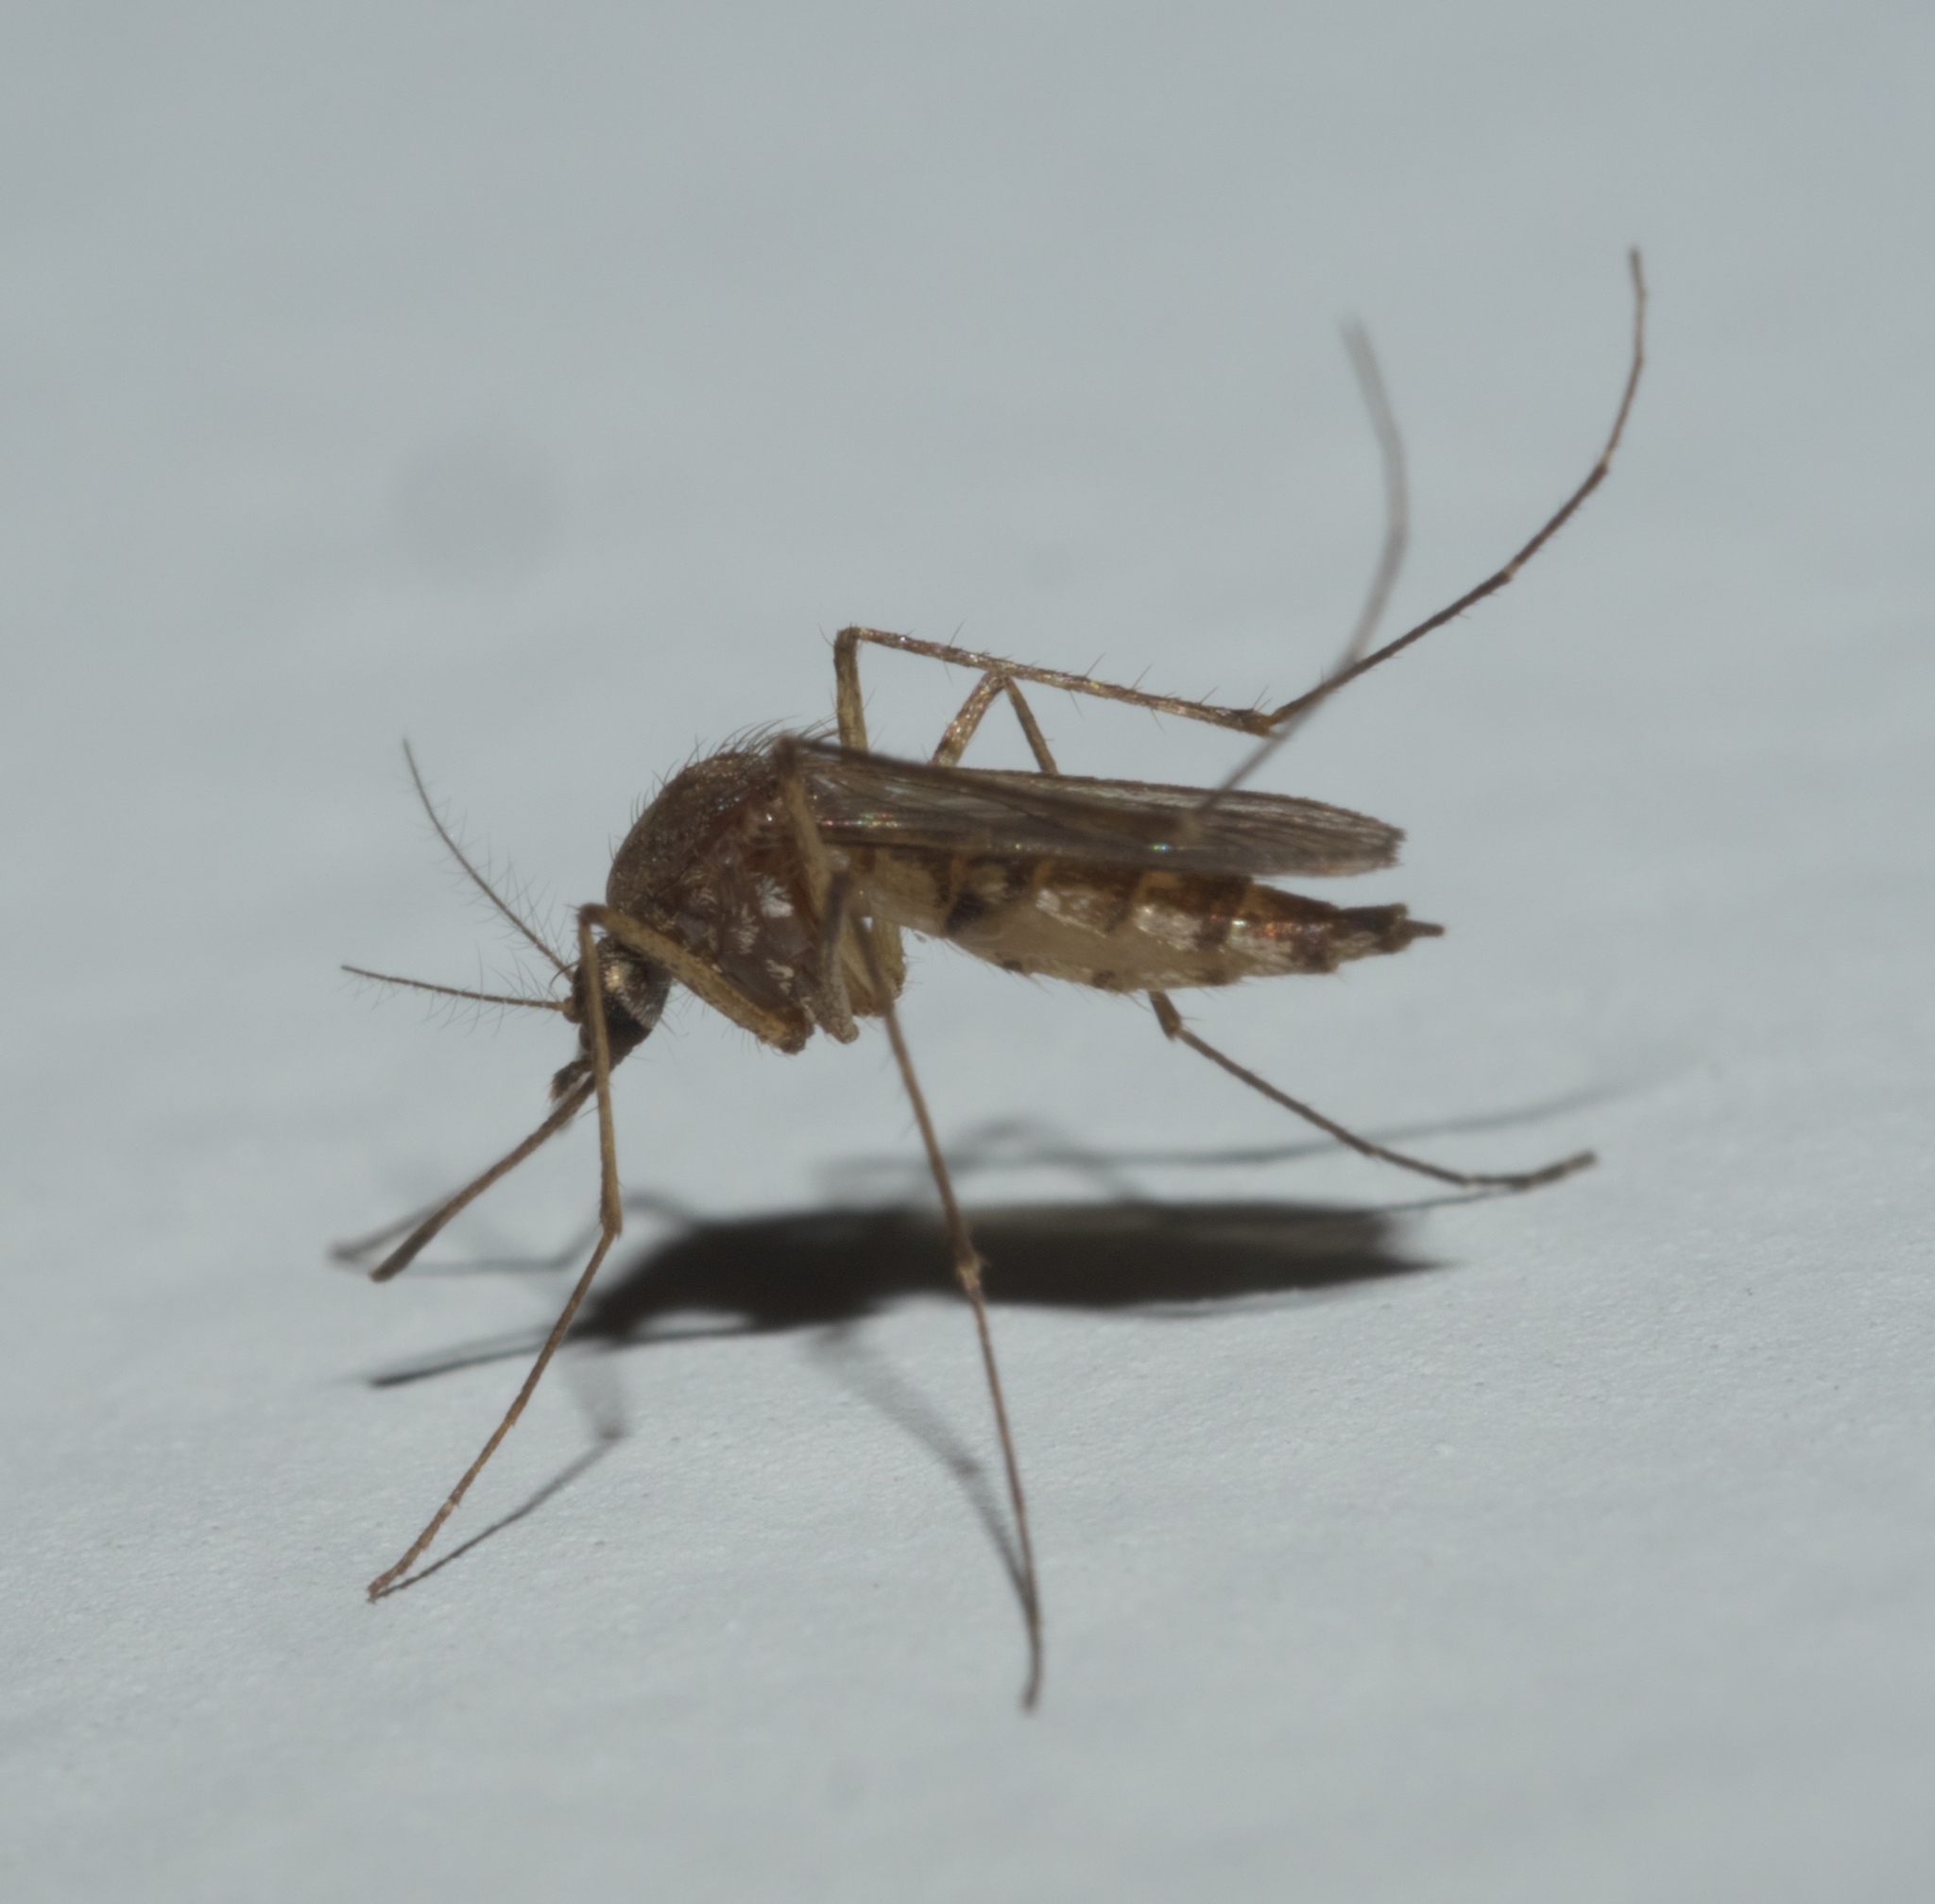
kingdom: Animalia
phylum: Arthropoda
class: Insecta
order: Diptera
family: Culicidae
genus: Aedes
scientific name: Aedes vexans
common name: Inland floodwater mosquito
